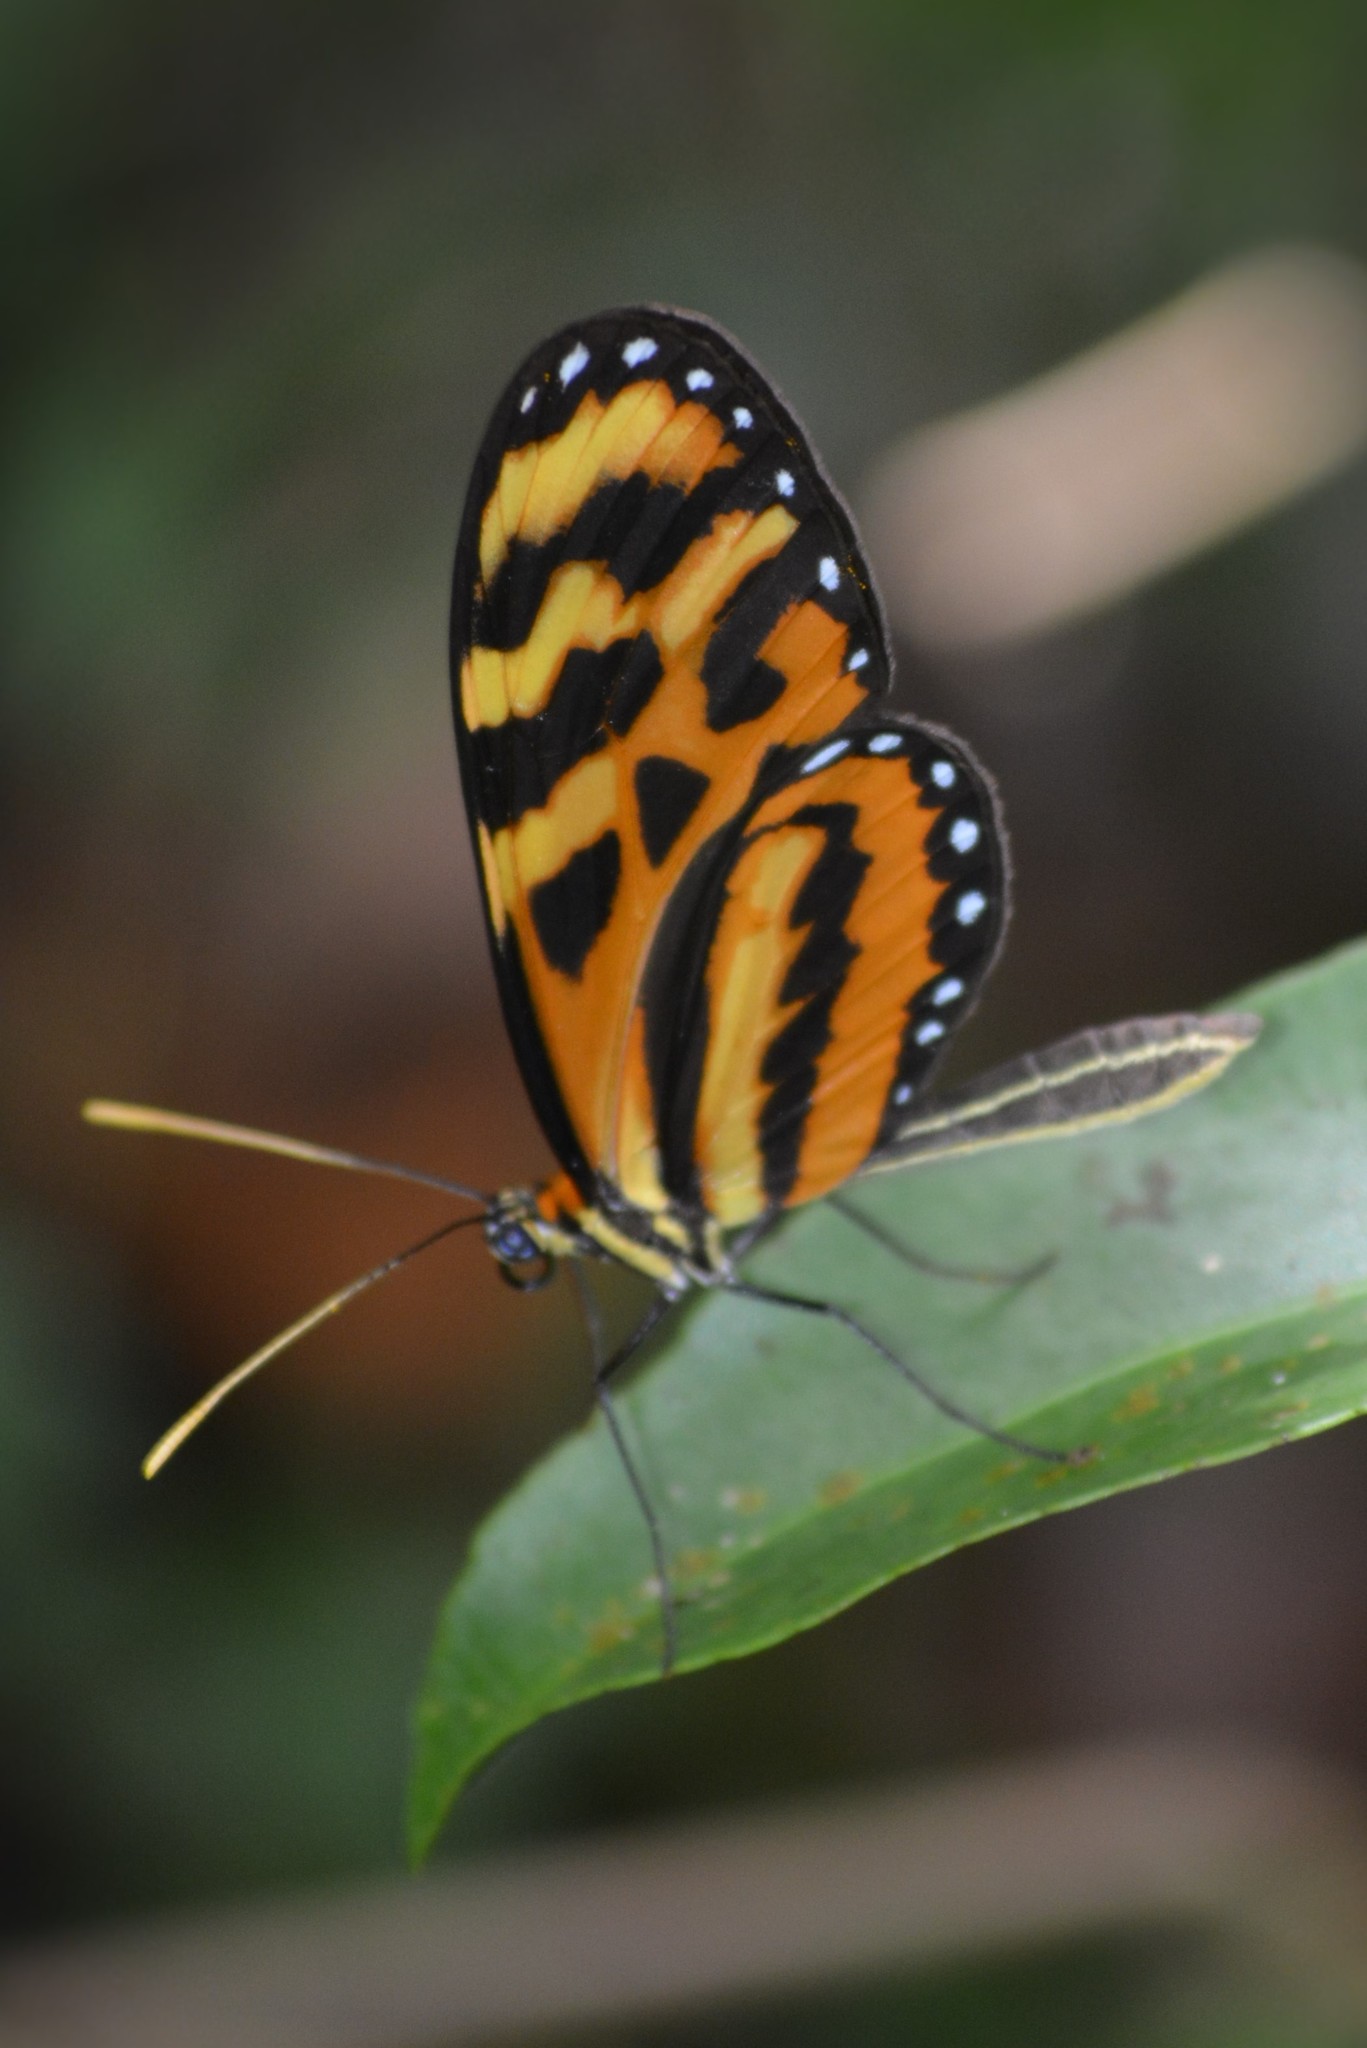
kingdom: Animalia
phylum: Arthropoda
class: Insecta
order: Lepidoptera
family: Nymphalidae
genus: Mechanitis
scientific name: Mechanitis lysimnia
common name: Lysimnia tigerwing
